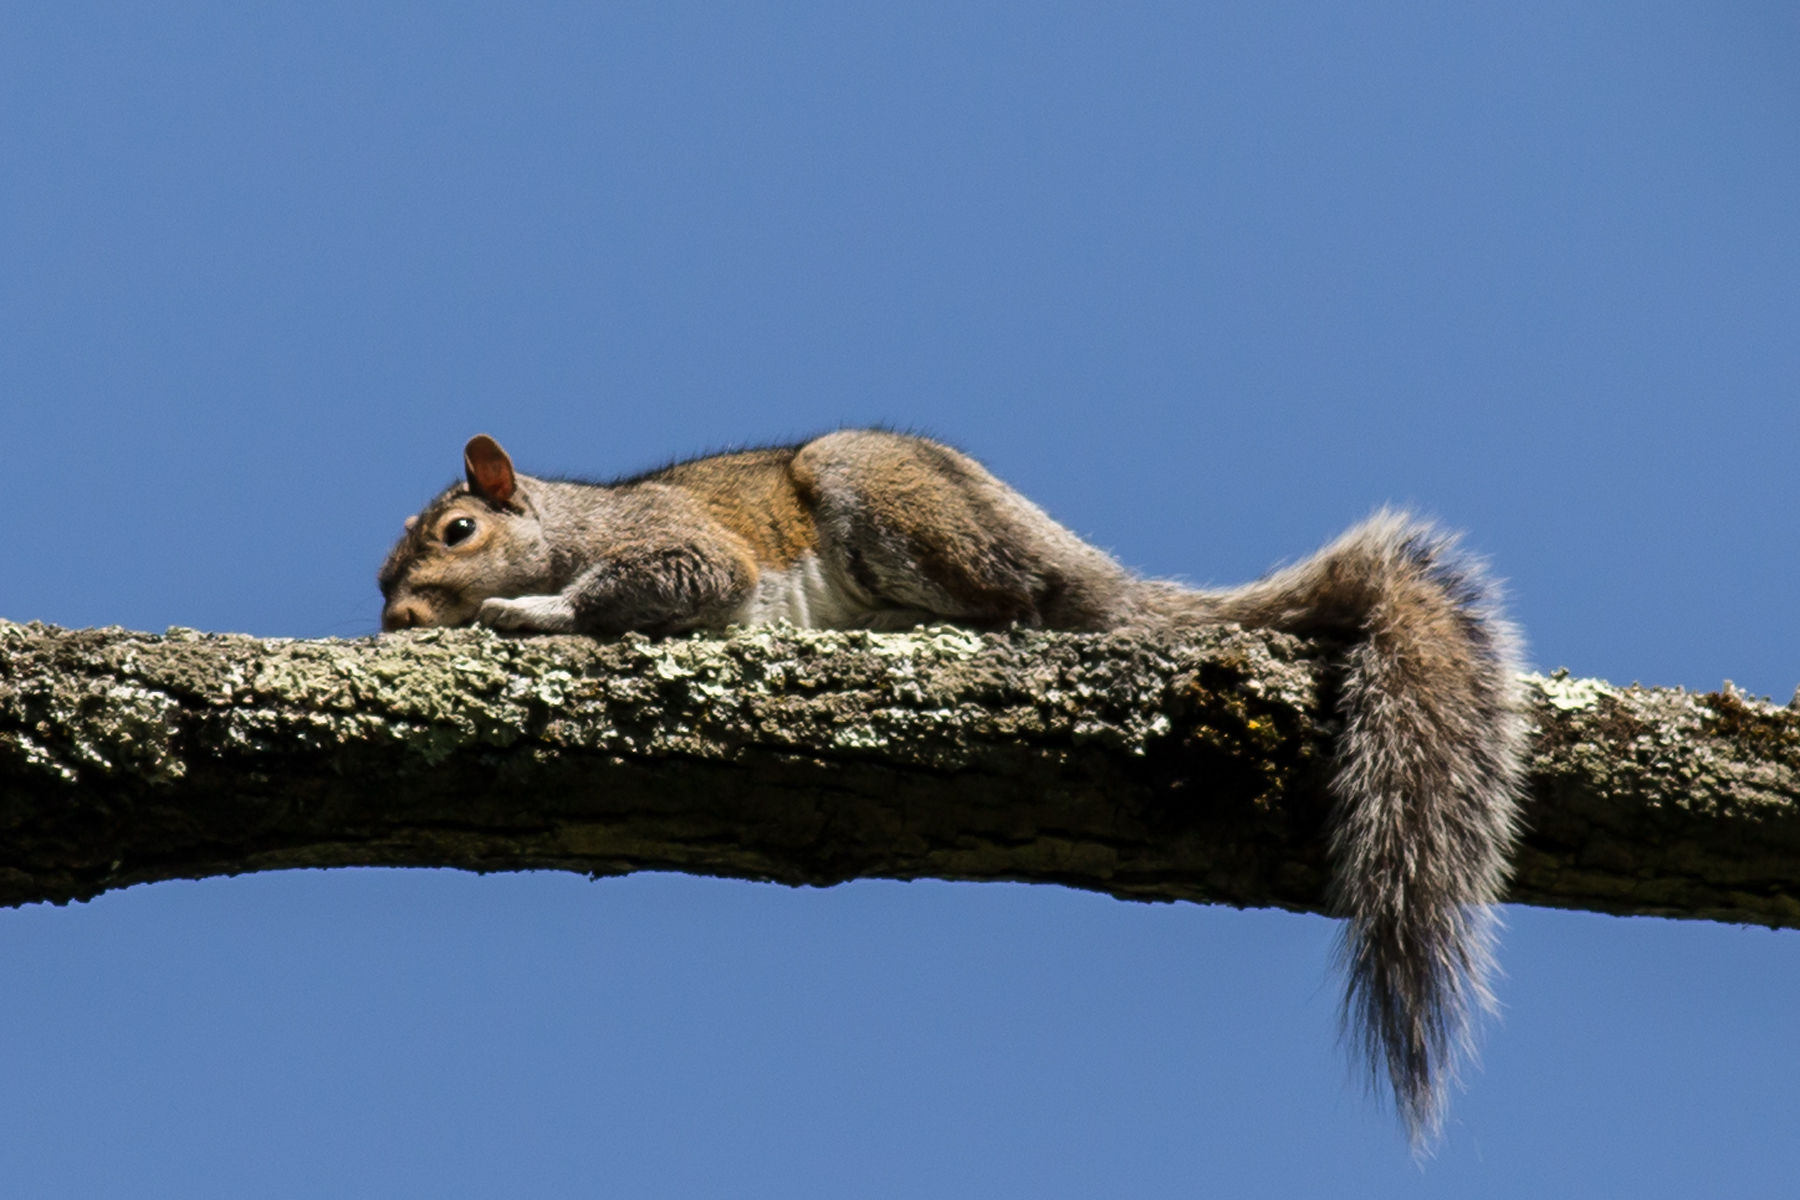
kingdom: Animalia
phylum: Chordata
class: Mammalia
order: Rodentia
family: Sciuridae
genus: Sciurus
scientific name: Sciurus carolinensis
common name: Eastern gray squirrel
